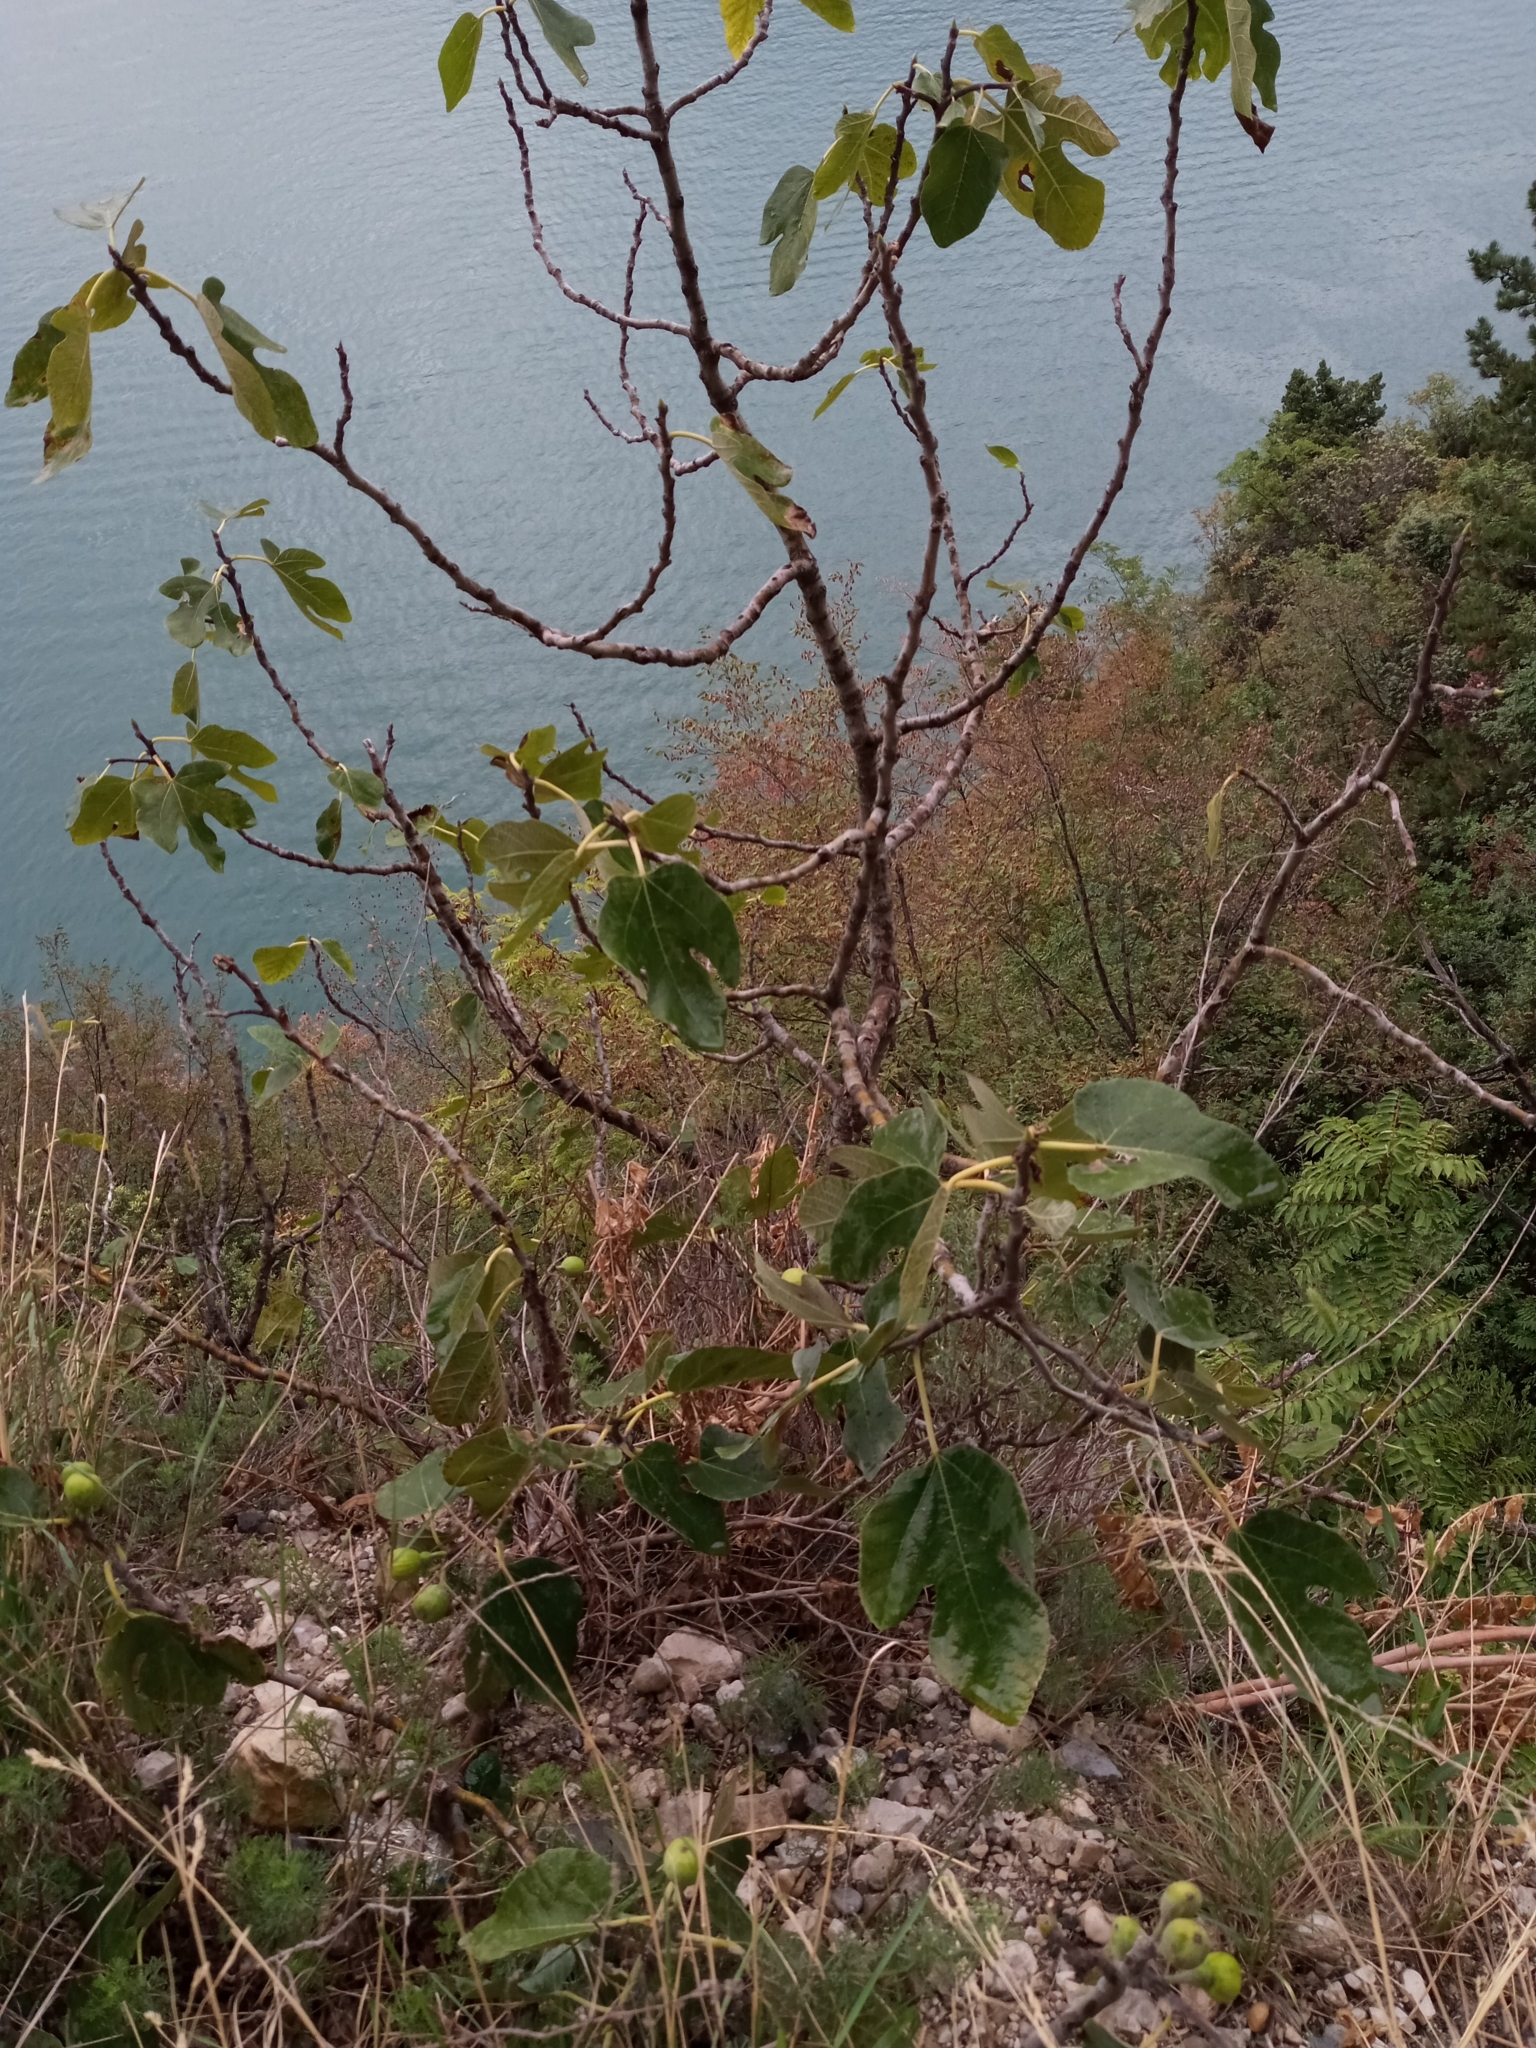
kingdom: Plantae
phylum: Tracheophyta
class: Magnoliopsida
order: Rosales
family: Moraceae
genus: Ficus
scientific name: Ficus carica
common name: Fig
